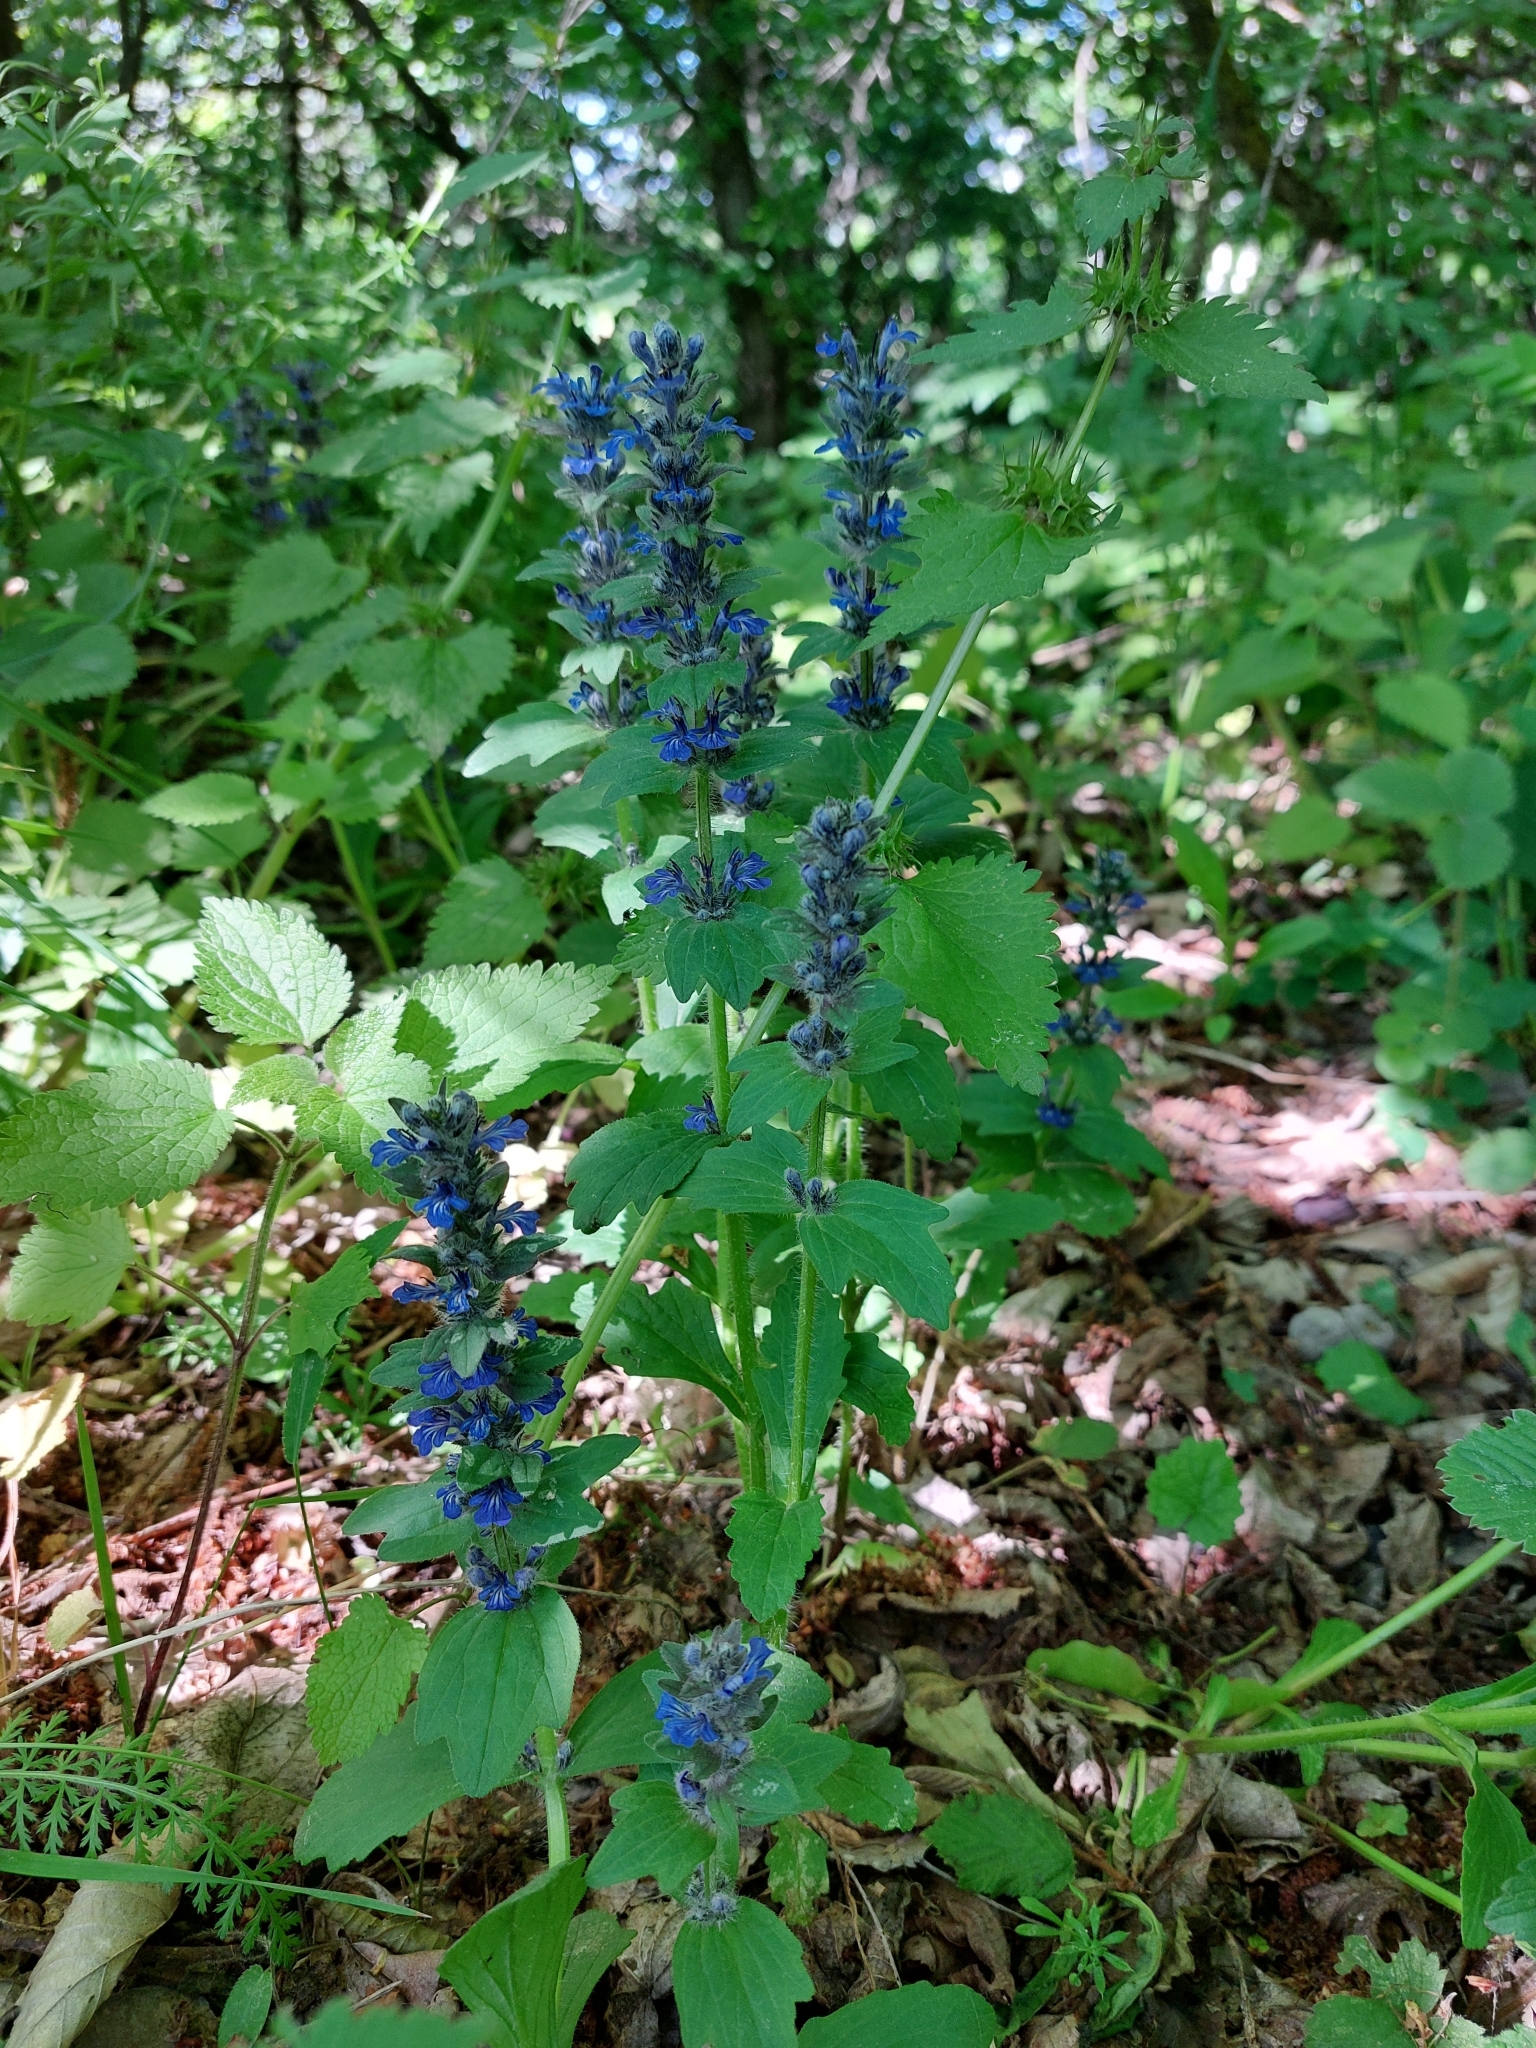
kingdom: Plantae
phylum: Tracheophyta
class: Magnoliopsida
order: Lamiales
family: Lamiaceae
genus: Ajuga
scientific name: Ajuga genevensis
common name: Blue bugle
